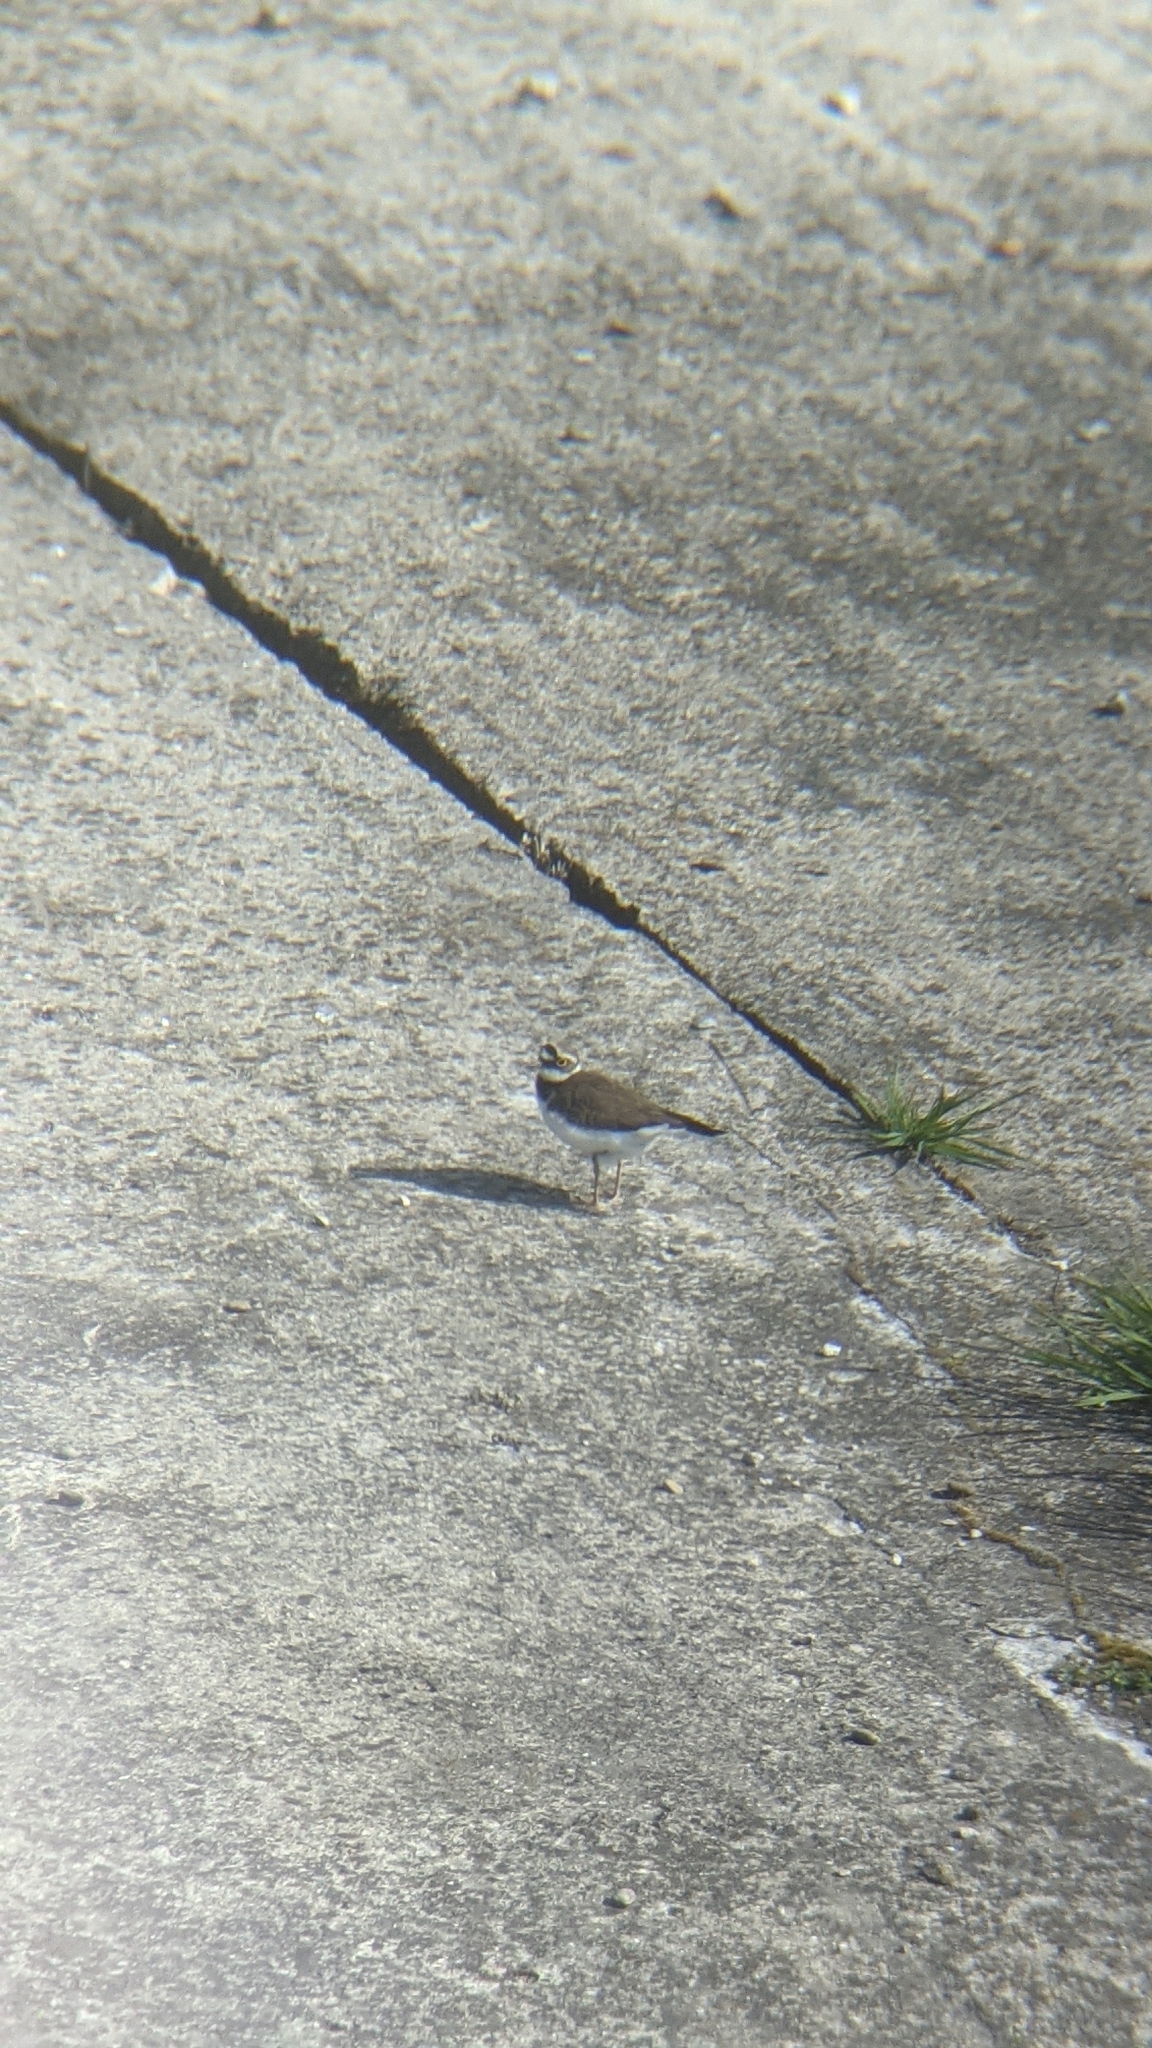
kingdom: Animalia
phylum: Chordata
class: Aves
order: Charadriiformes
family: Charadriidae
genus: Charadrius
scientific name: Charadrius dubius
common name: Little ringed plover
